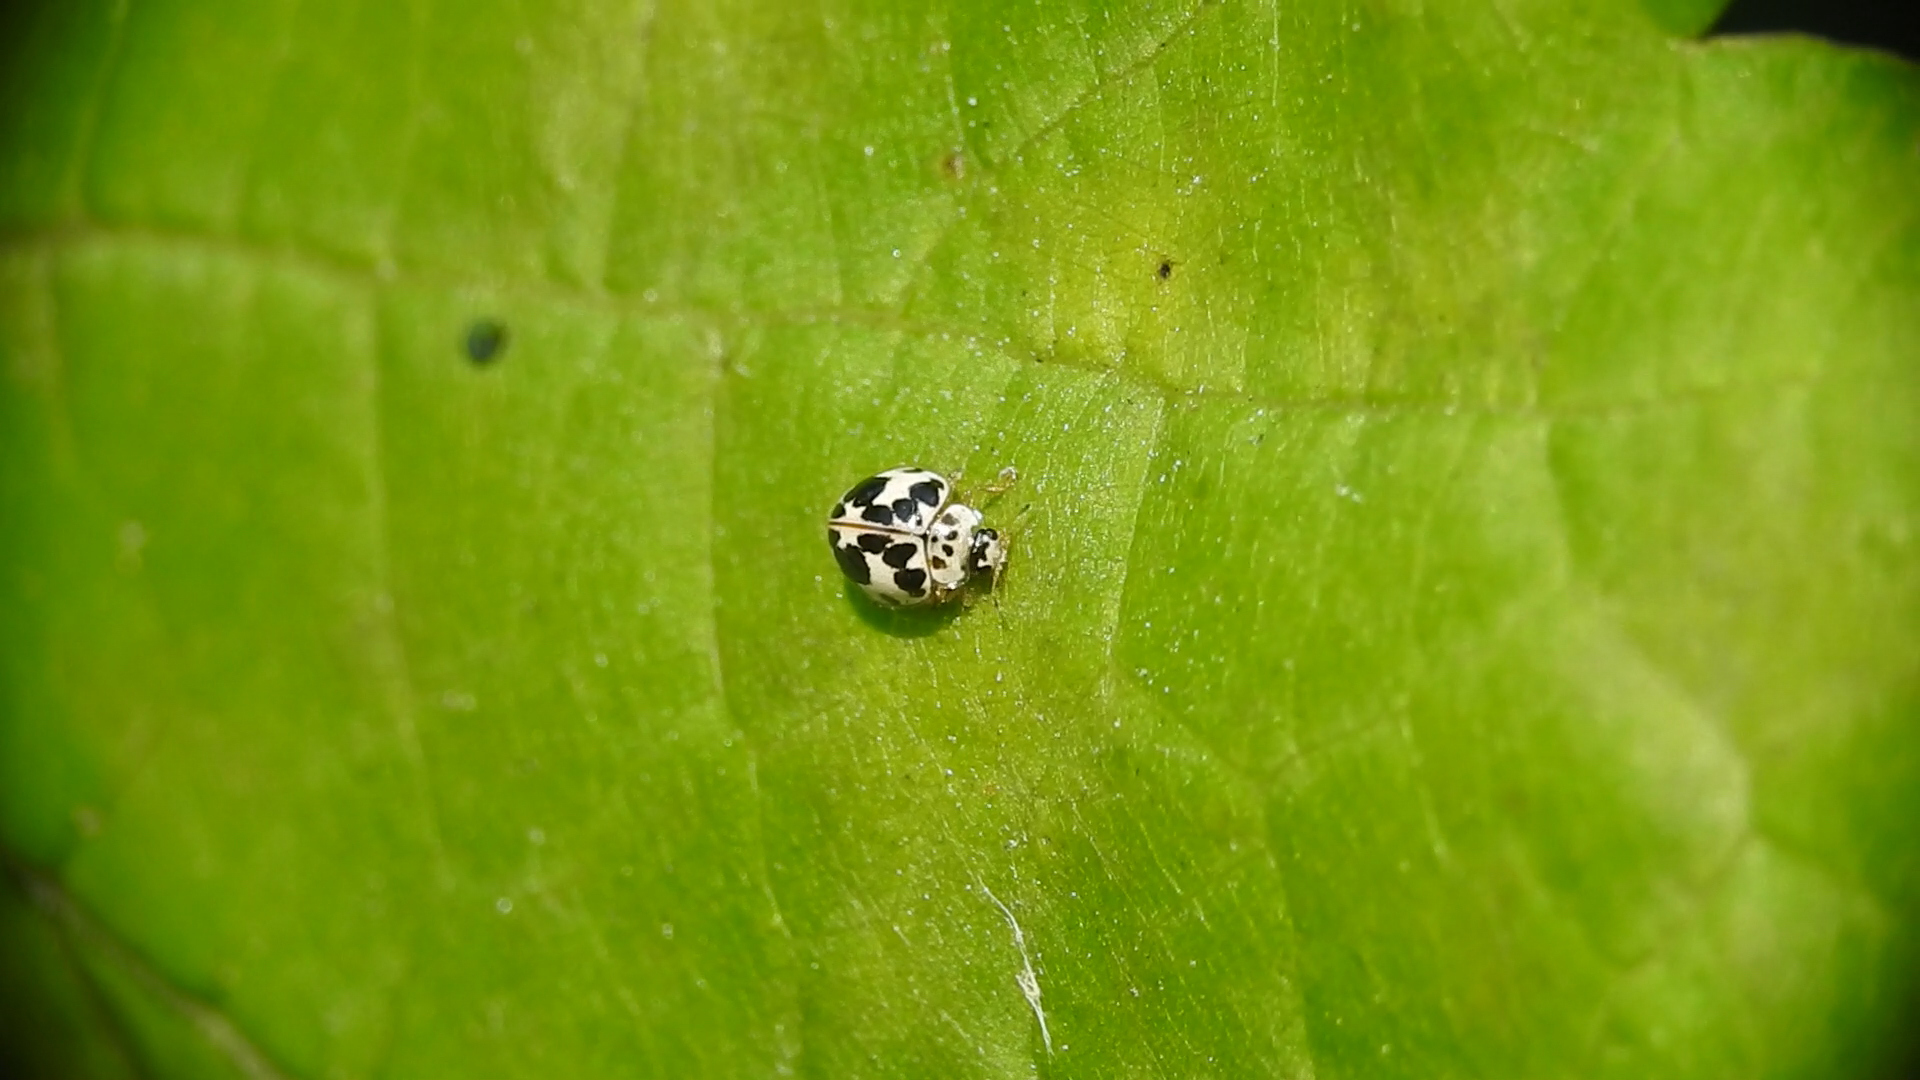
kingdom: Animalia
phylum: Arthropoda
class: Insecta
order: Coleoptera
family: Coccinellidae
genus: Psyllobora
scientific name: Psyllobora borealis
